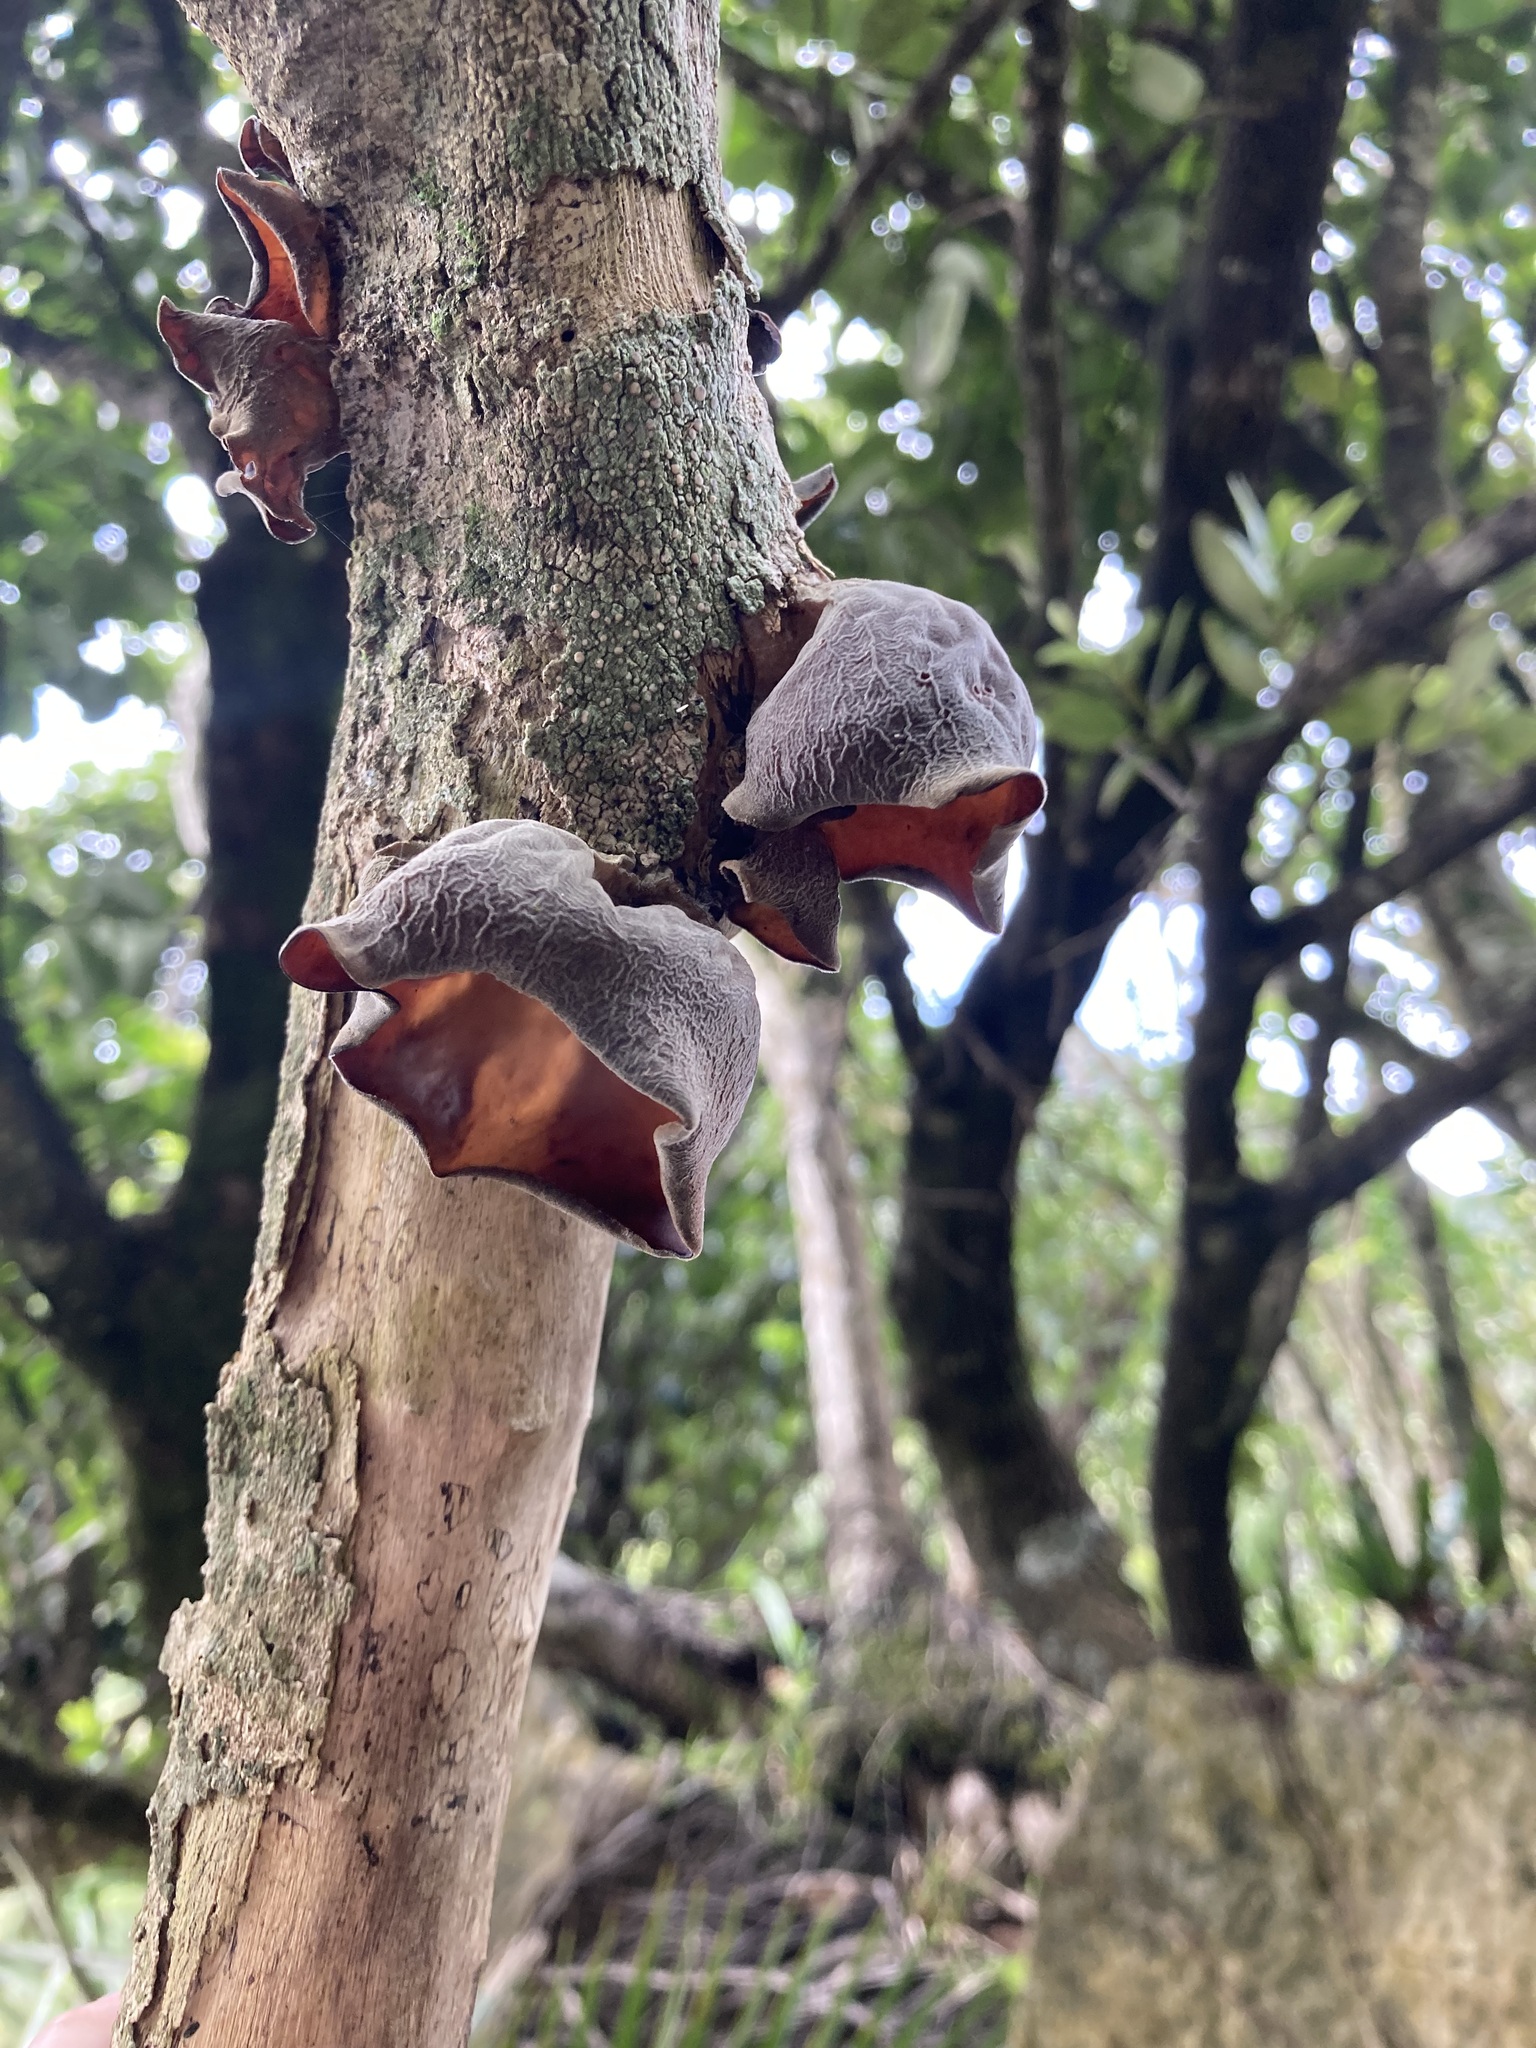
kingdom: Fungi
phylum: Basidiomycota
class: Agaricomycetes
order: Auriculariales
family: Auriculariaceae
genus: Auricularia
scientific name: Auricularia cornea
